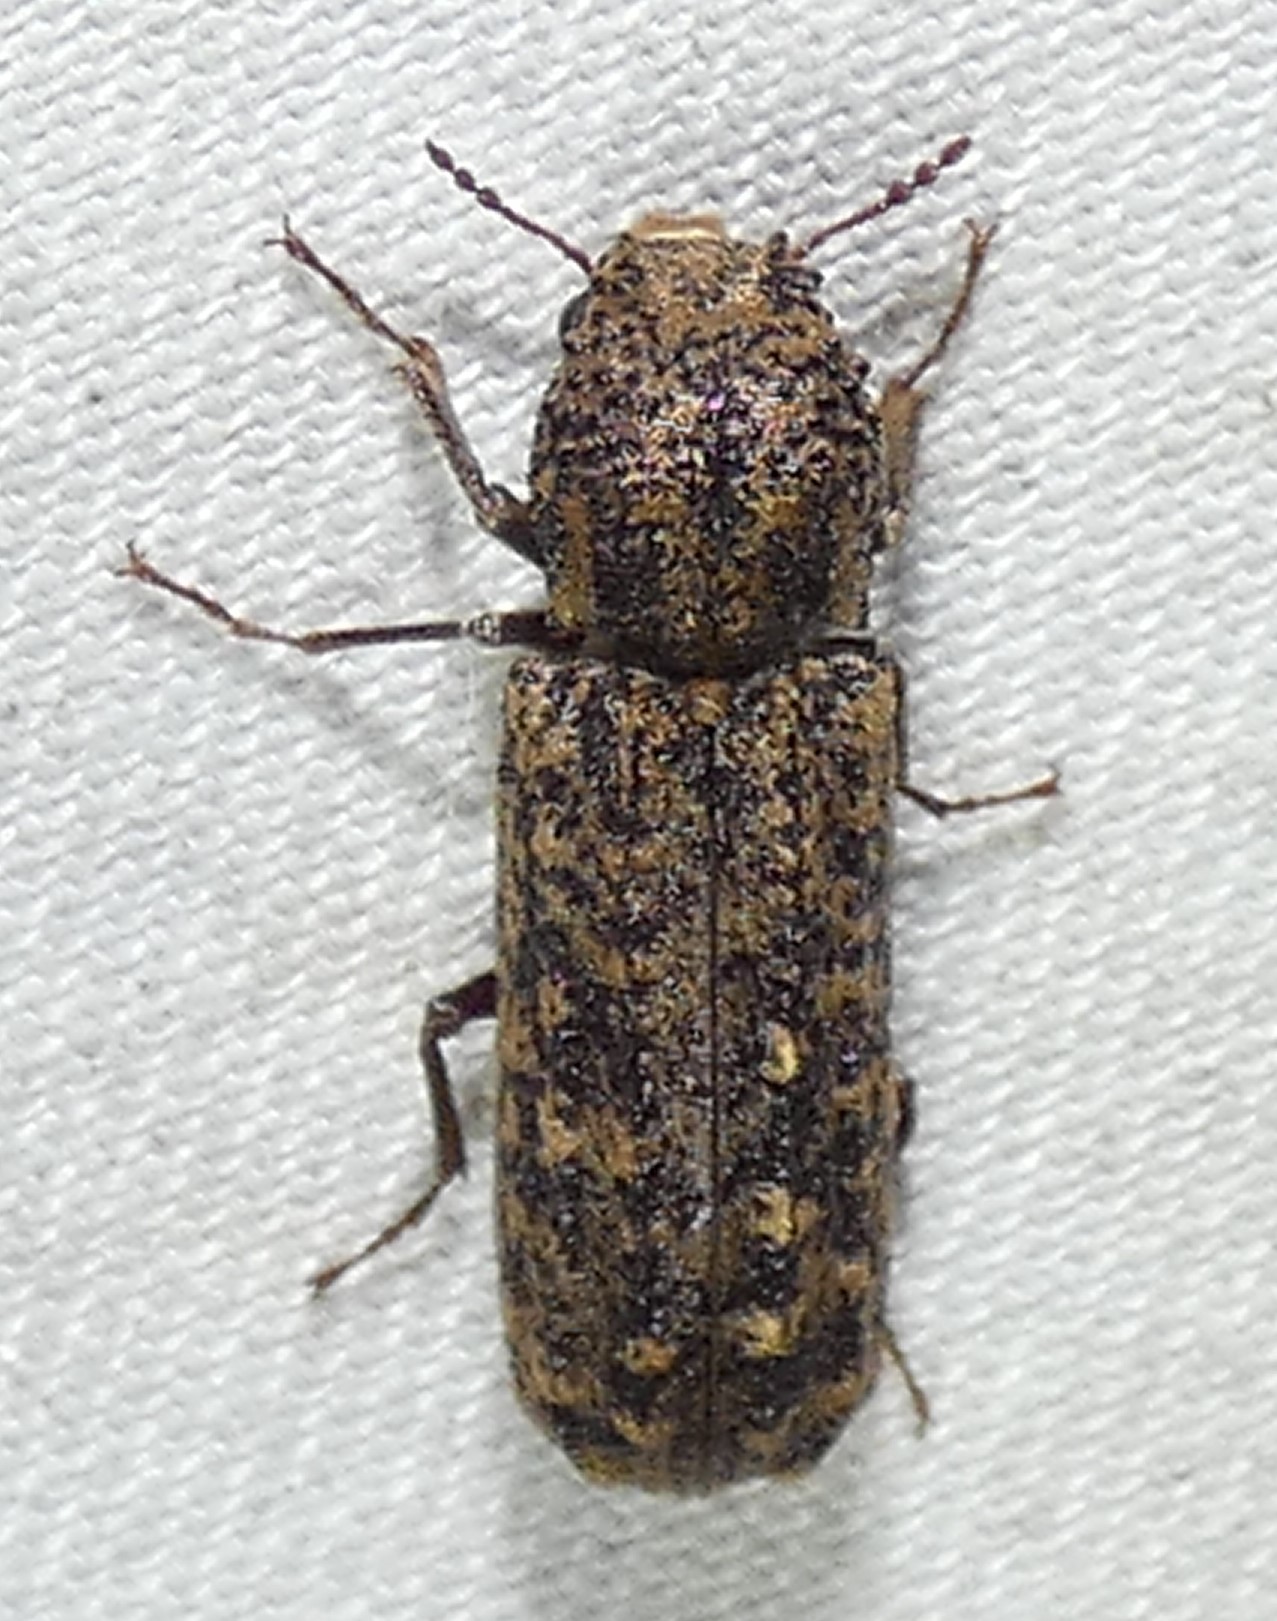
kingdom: Animalia
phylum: Arthropoda
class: Insecta
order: Coleoptera
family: Bostrichidae
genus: Lichenophanes
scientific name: Lichenophanes bicornis
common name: Two-horned powder-post beetle
